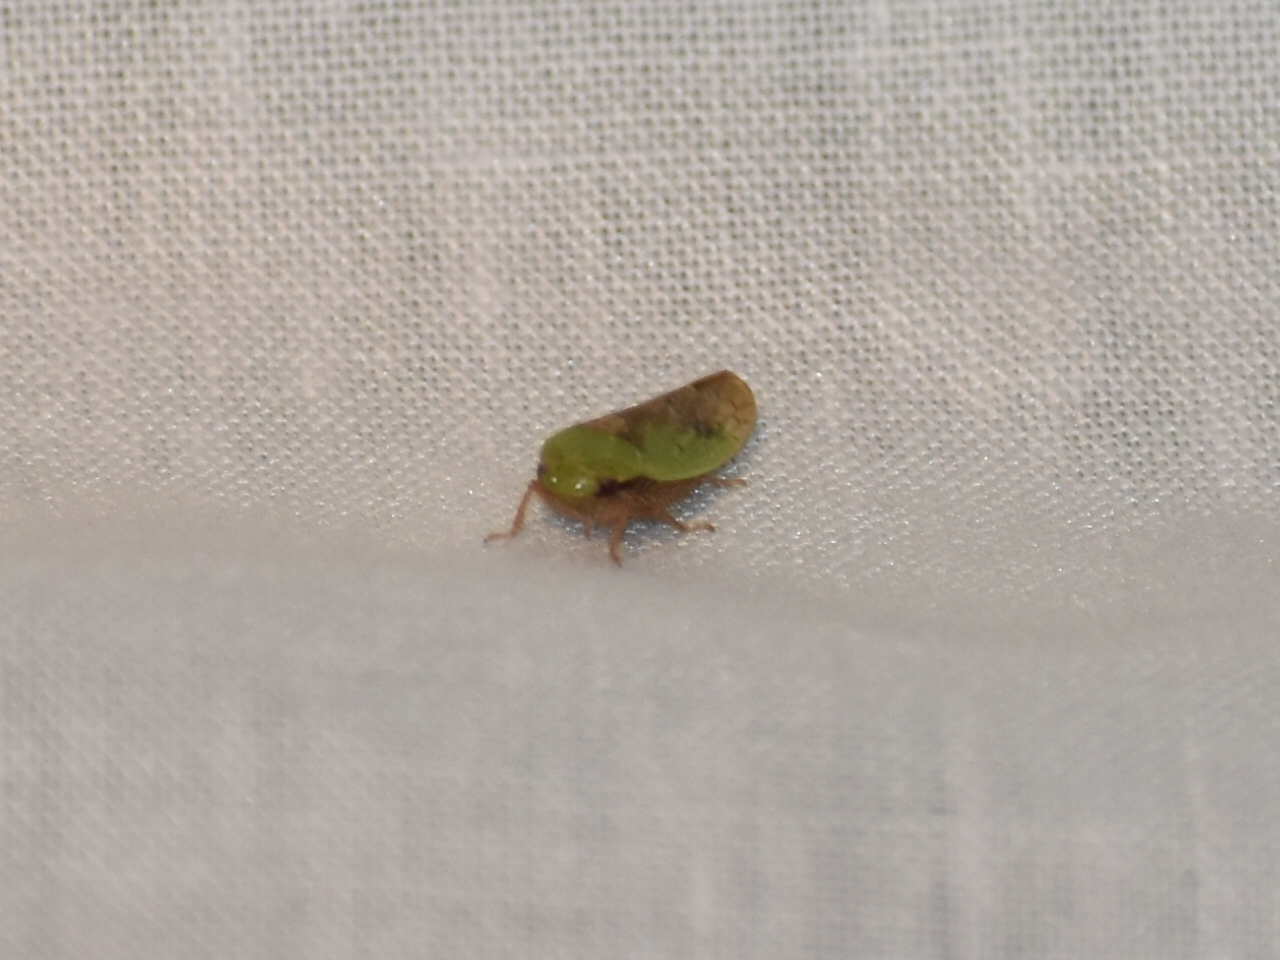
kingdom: Animalia
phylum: Arthropoda
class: Insecta
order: Hemiptera
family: Cicadellidae
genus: Ponana
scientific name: Ponana pectoralis
